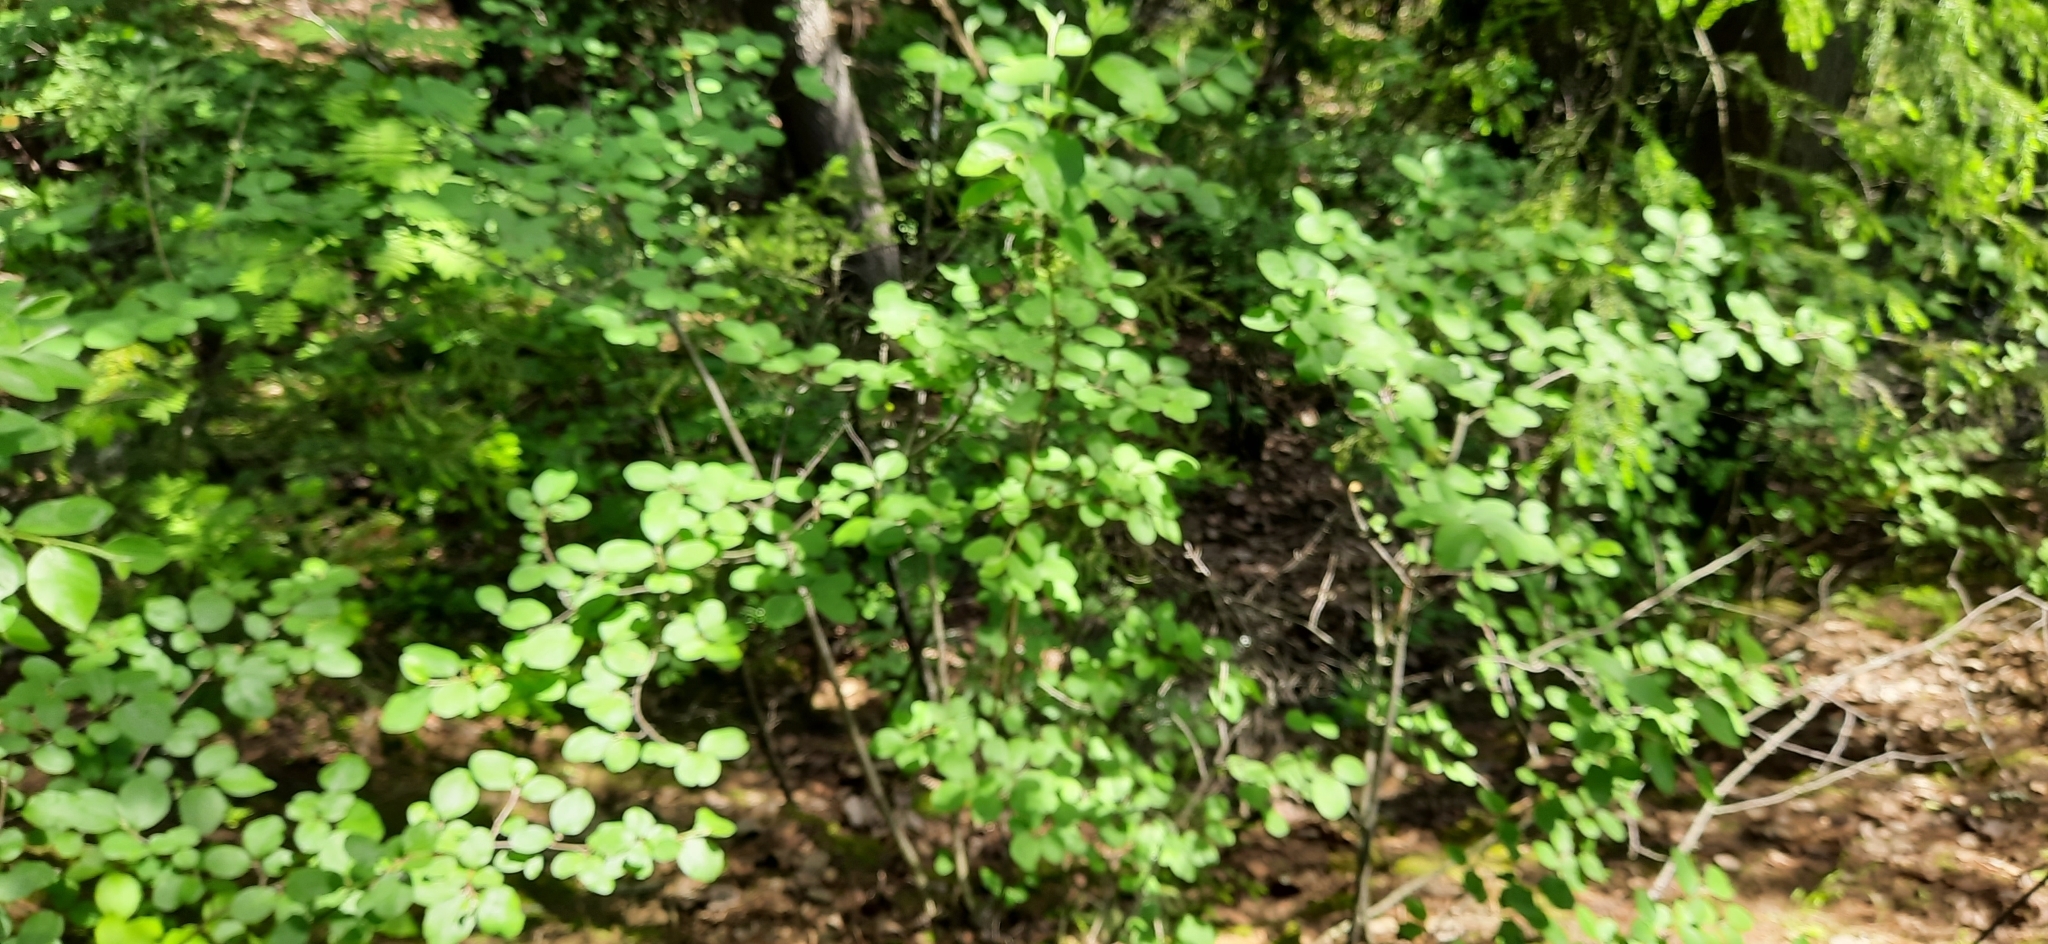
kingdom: Plantae
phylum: Tracheophyta
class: Magnoliopsida
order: Rosales
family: Rosaceae
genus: Cotoneaster
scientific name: Cotoneaster melanocarpus
